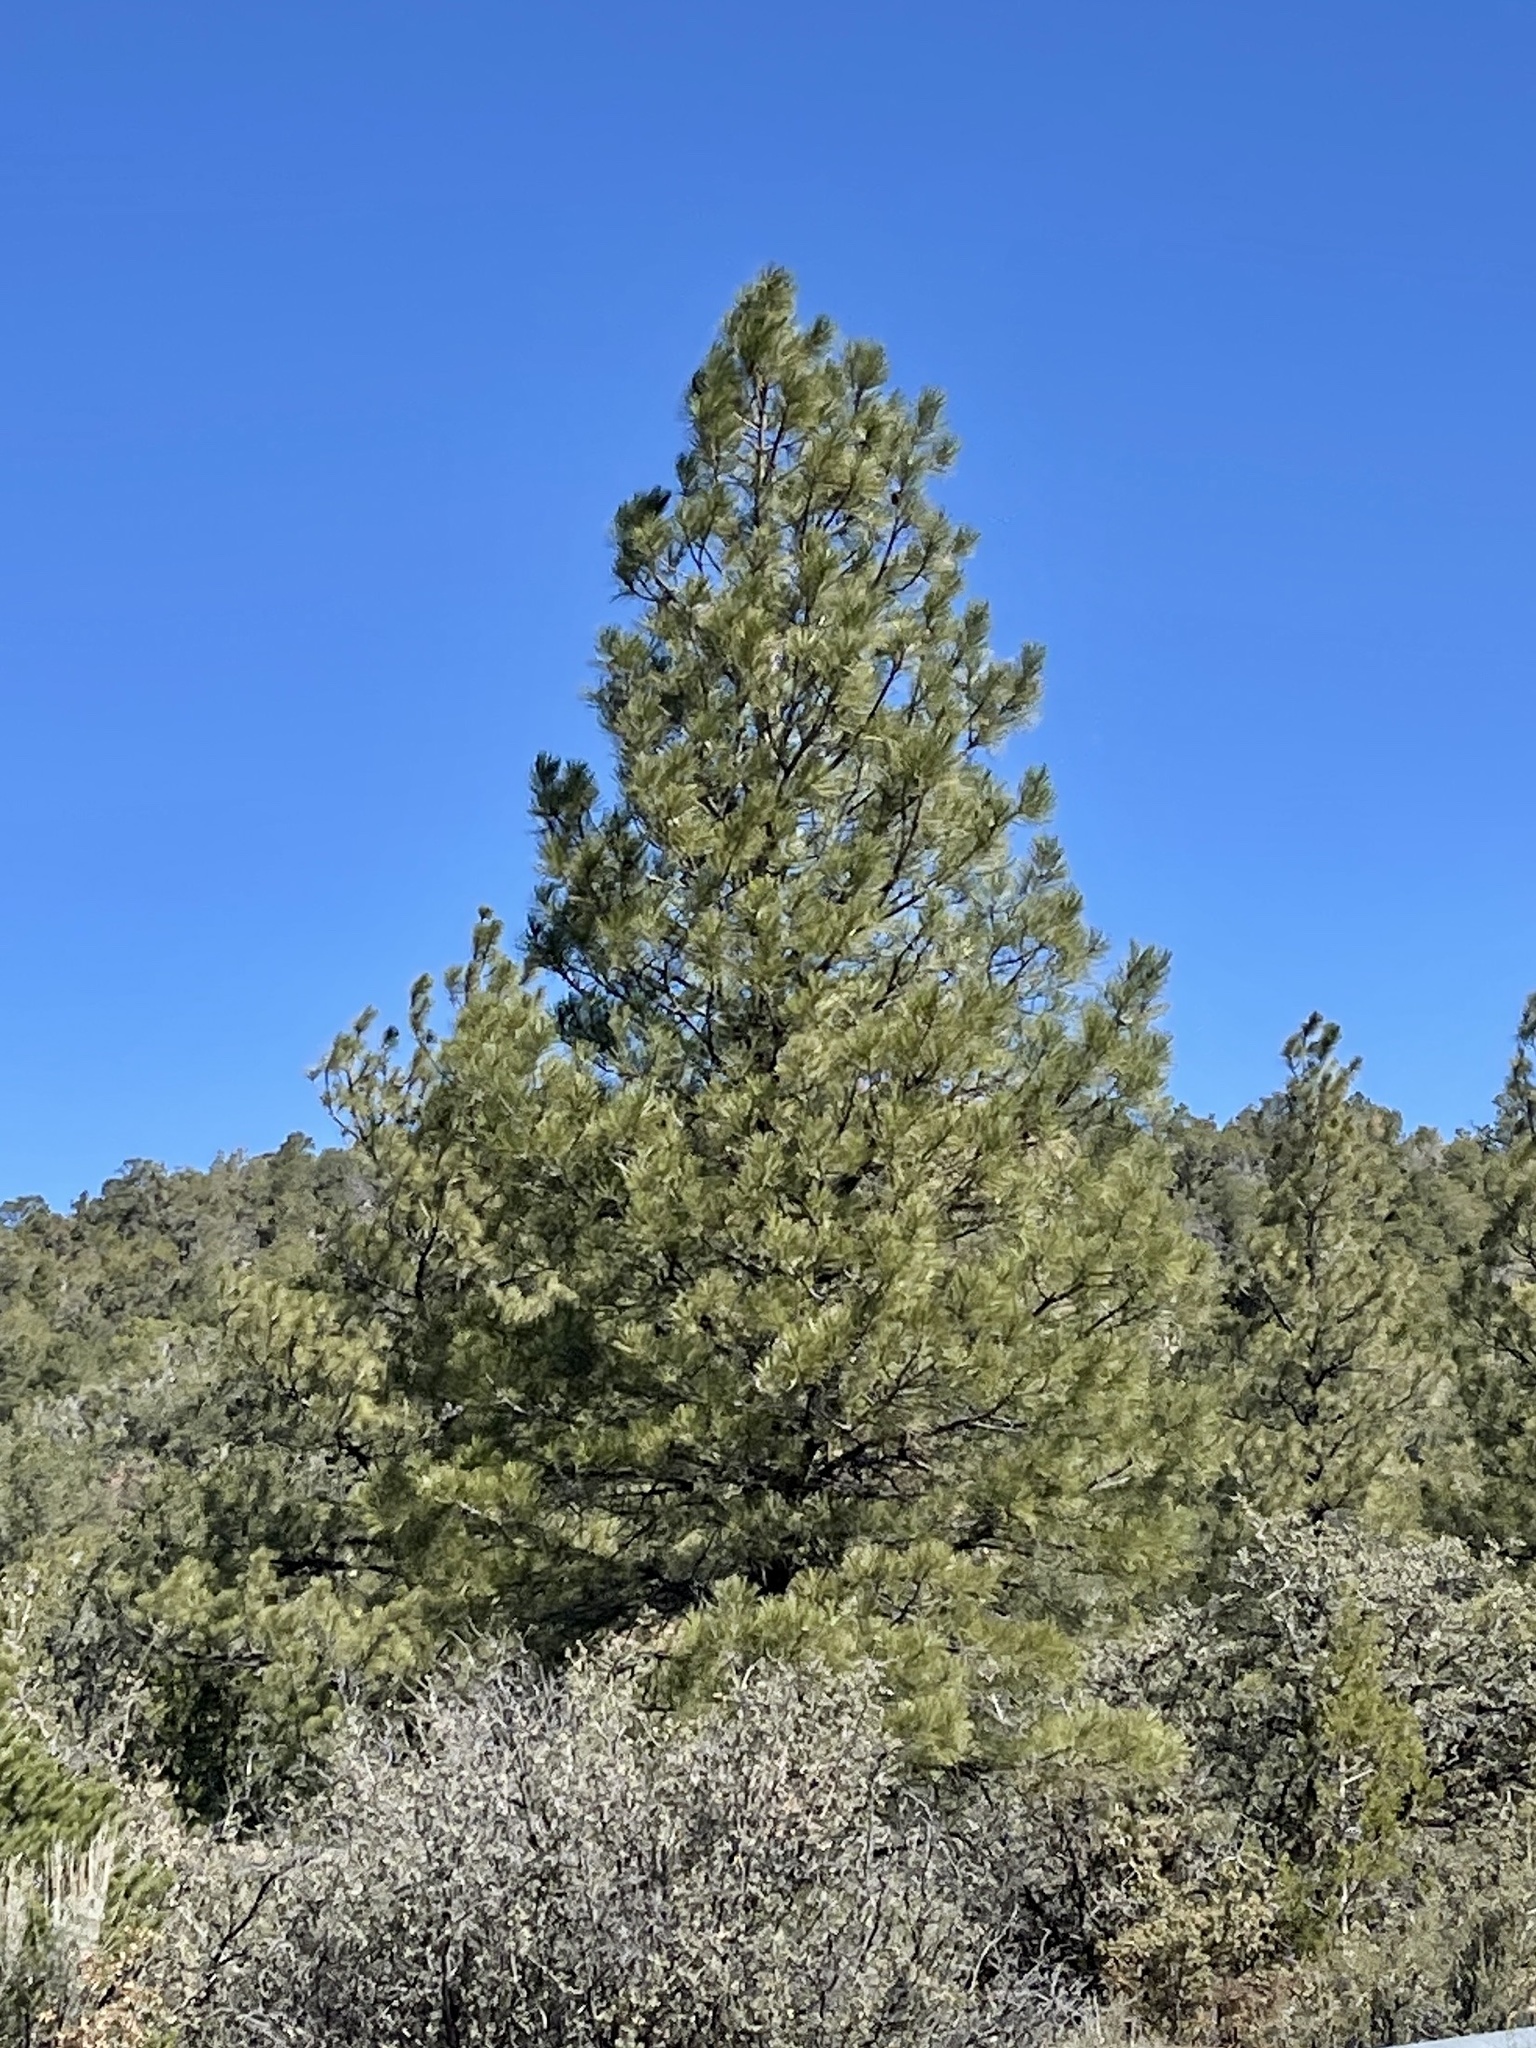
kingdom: Plantae
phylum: Tracheophyta
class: Pinopsida
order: Pinales
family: Pinaceae
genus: Pinus
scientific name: Pinus ponderosa
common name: Western yellow-pine
